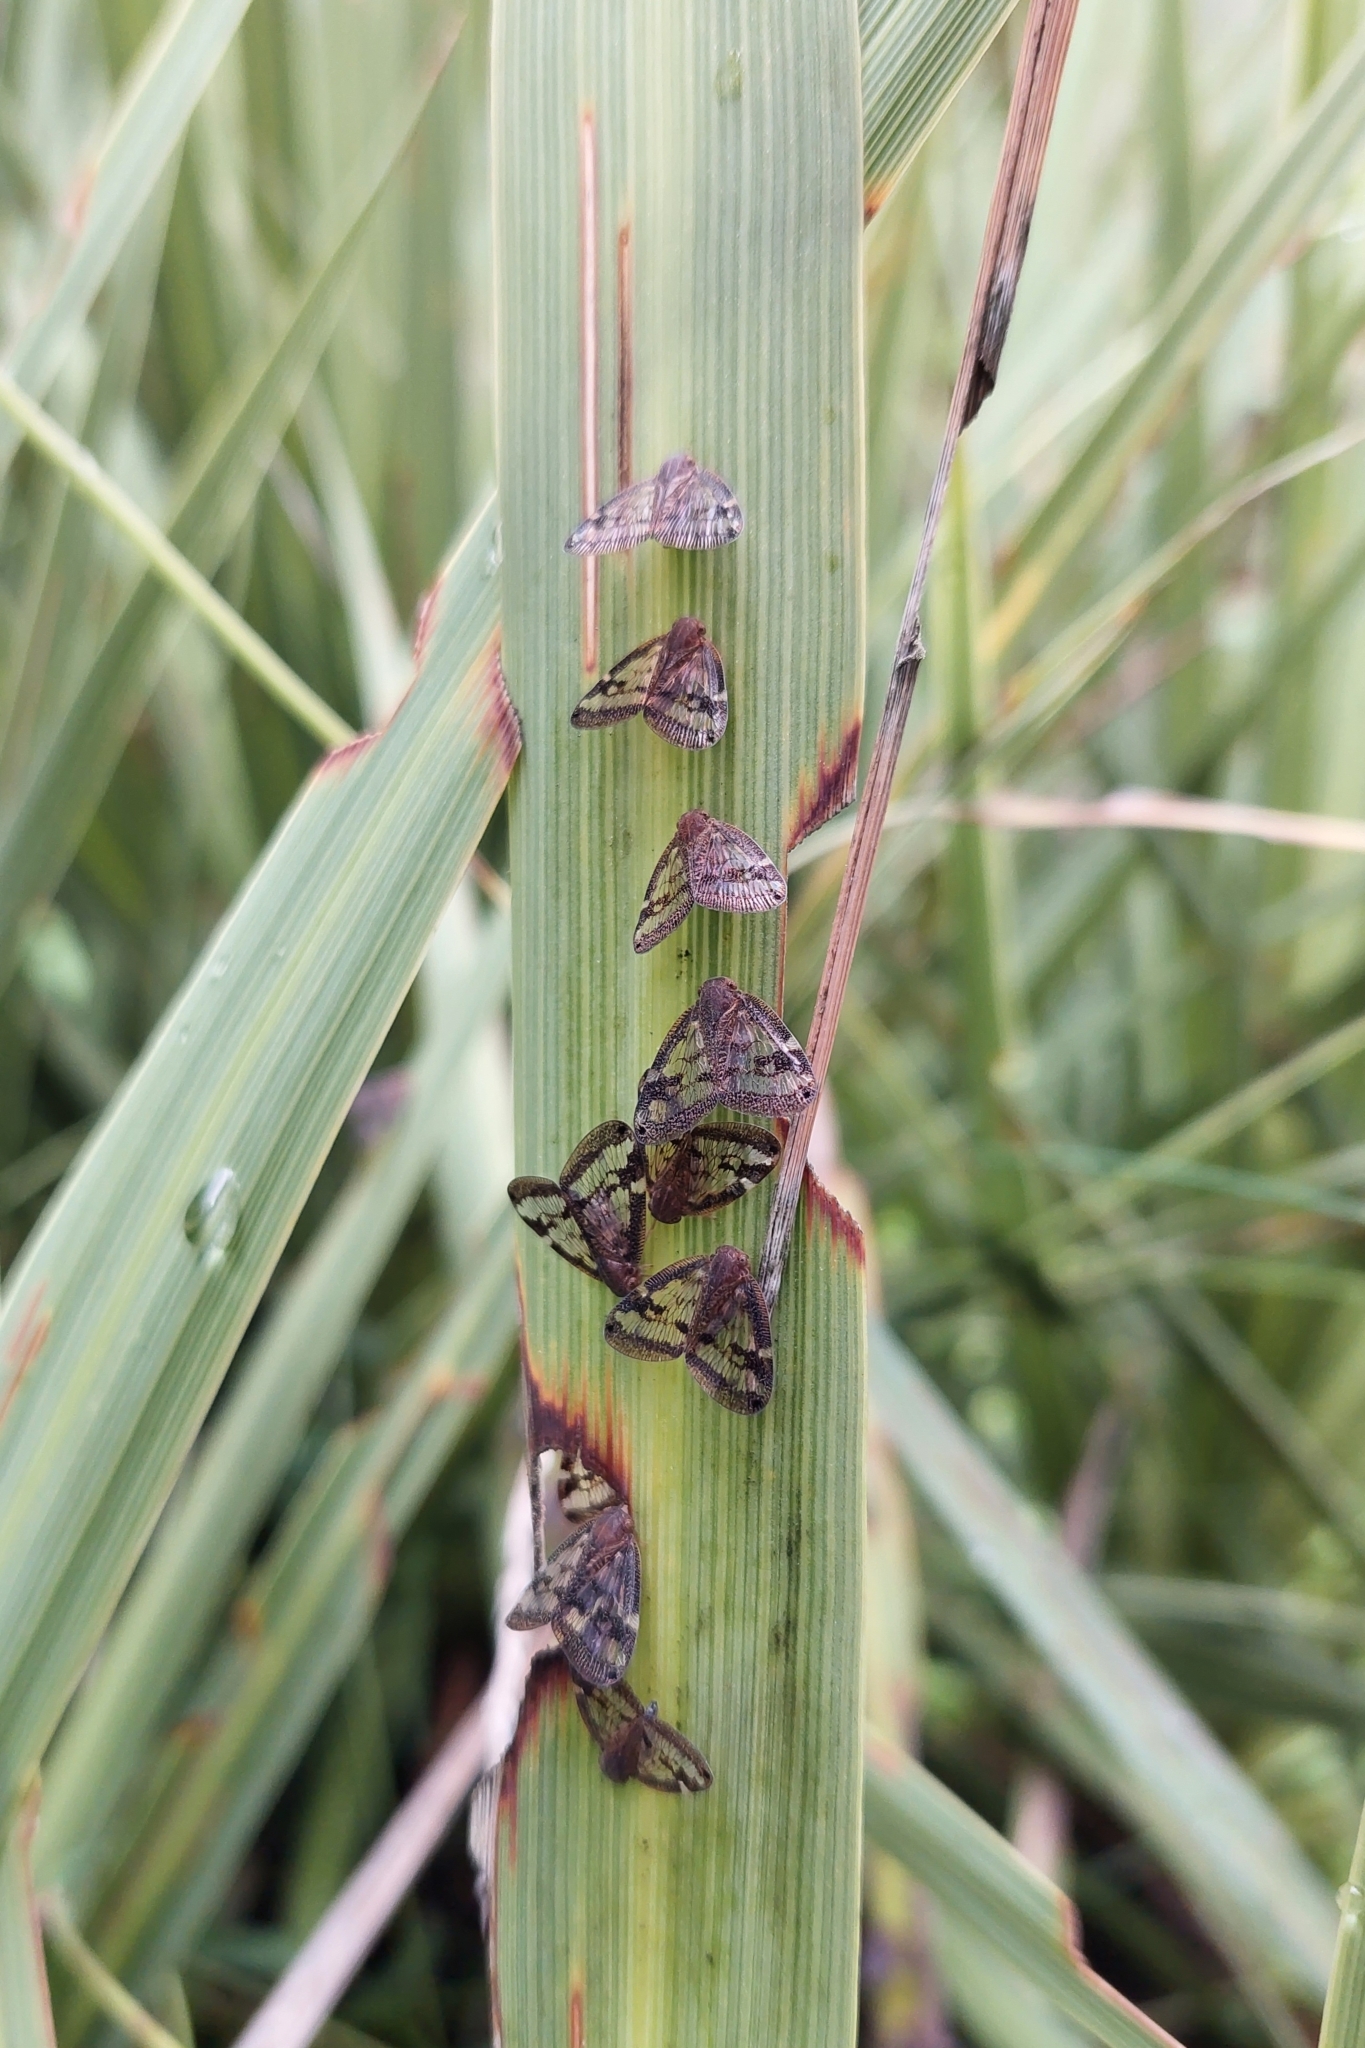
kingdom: Animalia
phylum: Arthropoda
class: Insecta
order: Hemiptera
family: Ricaniidae
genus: Scolypopa
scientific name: Scolypopa australis
